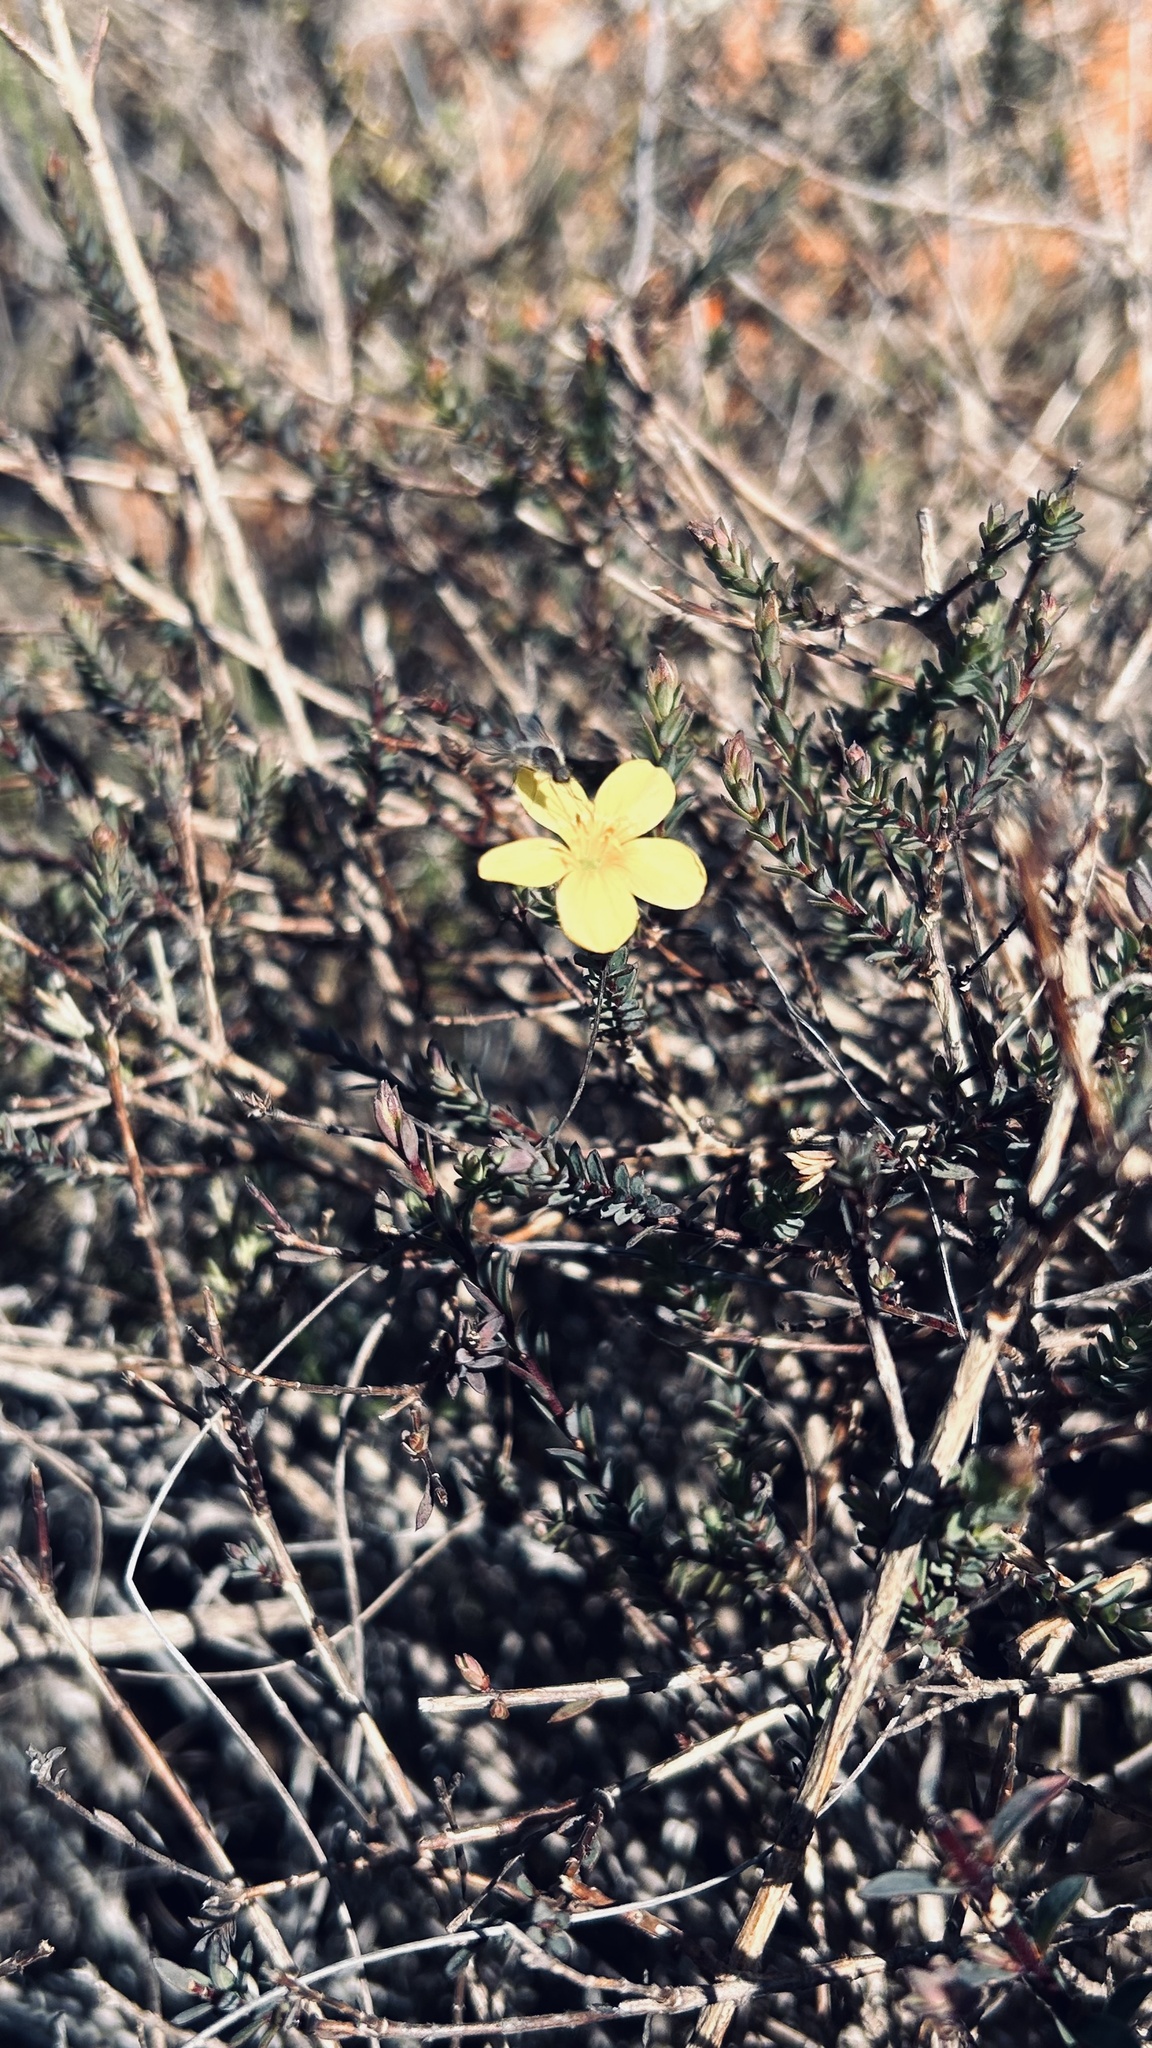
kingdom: Plantae
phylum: Tracheophyta
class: Magnoliopsida
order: Malpighiales
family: Linaceae
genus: Linum
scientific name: Linum africanum
